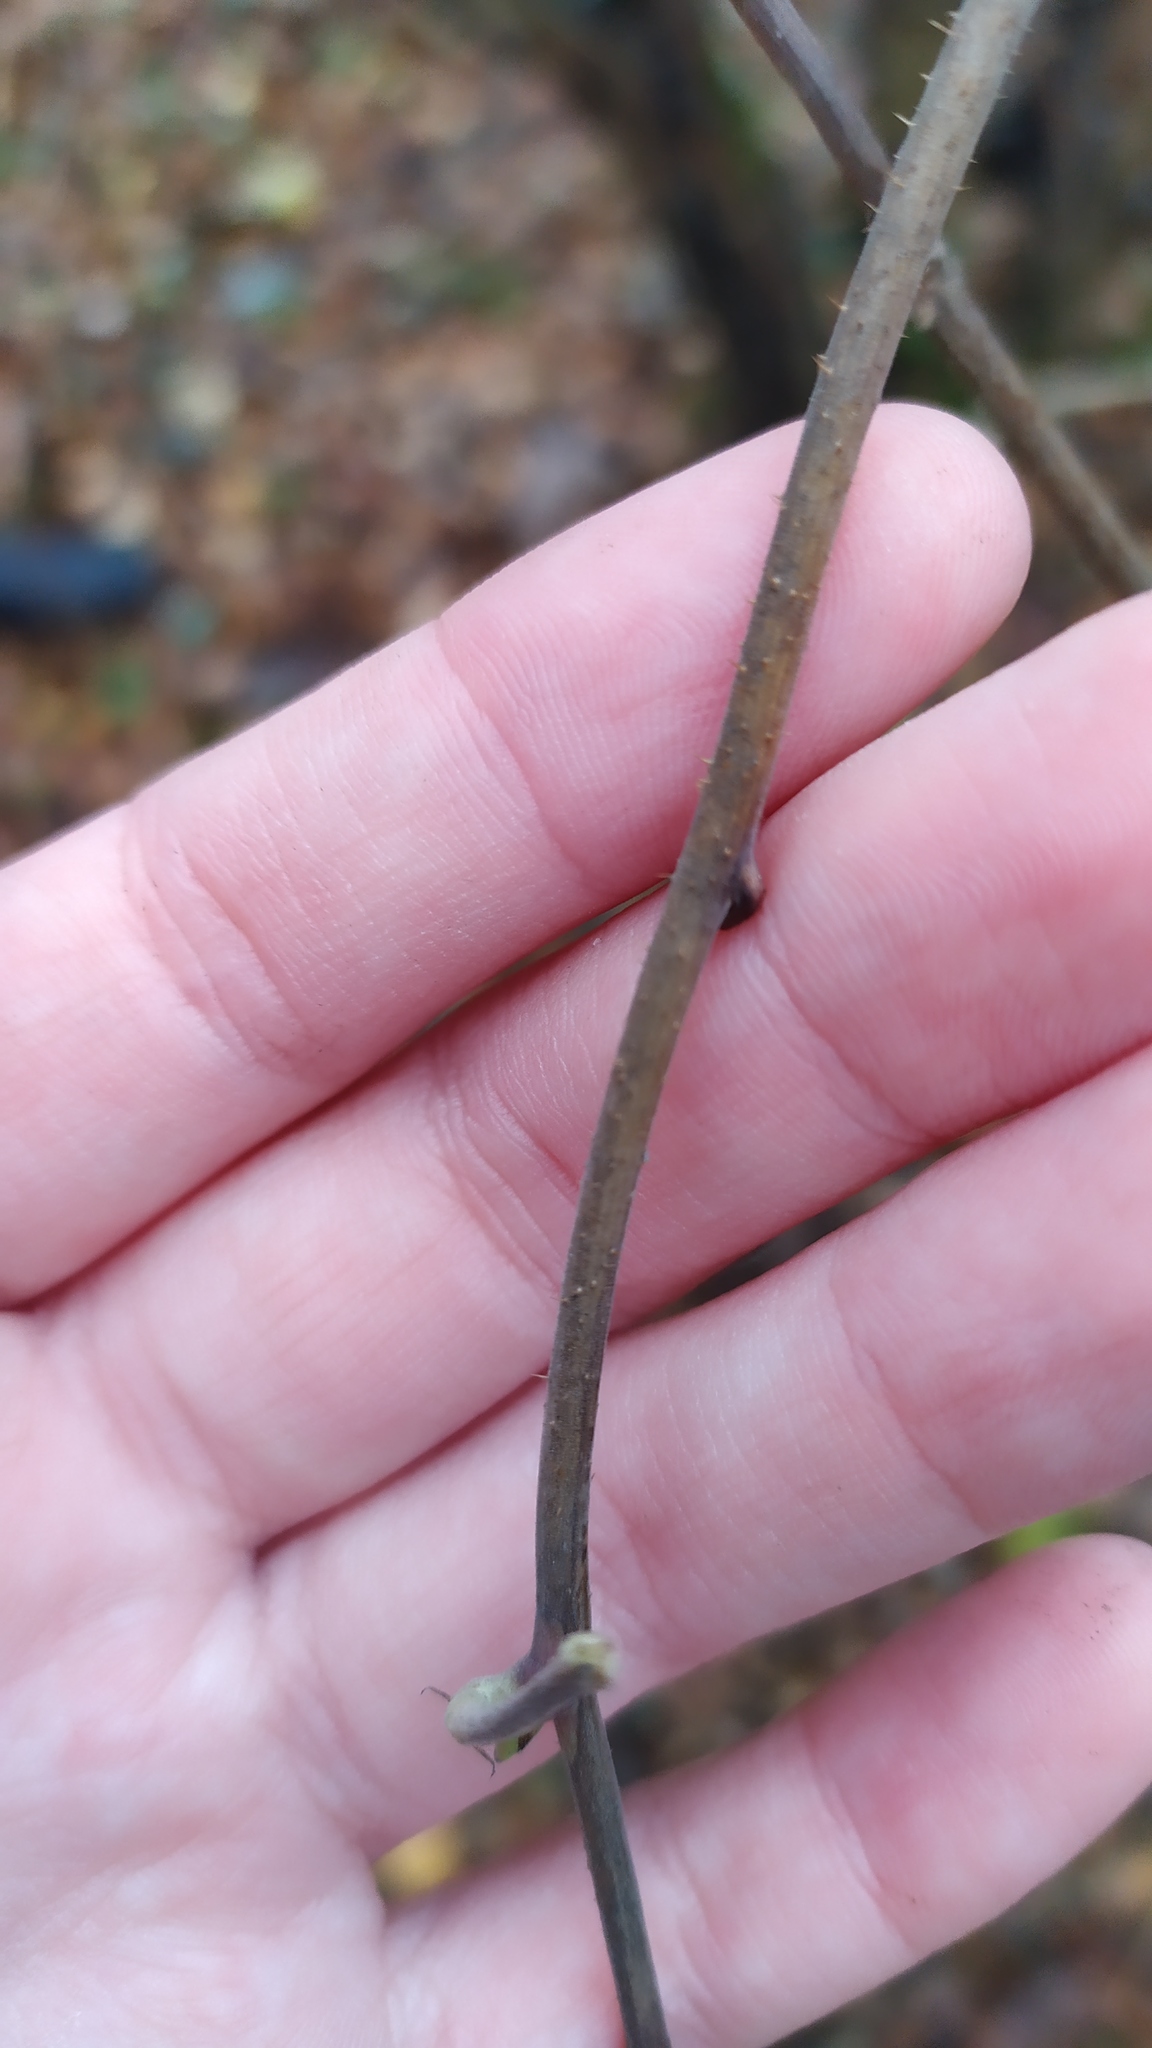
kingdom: Plantae
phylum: Tracheophyta
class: Magnoliopsida
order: Rosales
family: Rosaceae
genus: Rubus
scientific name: Rubus idaeus
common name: Raspberry
